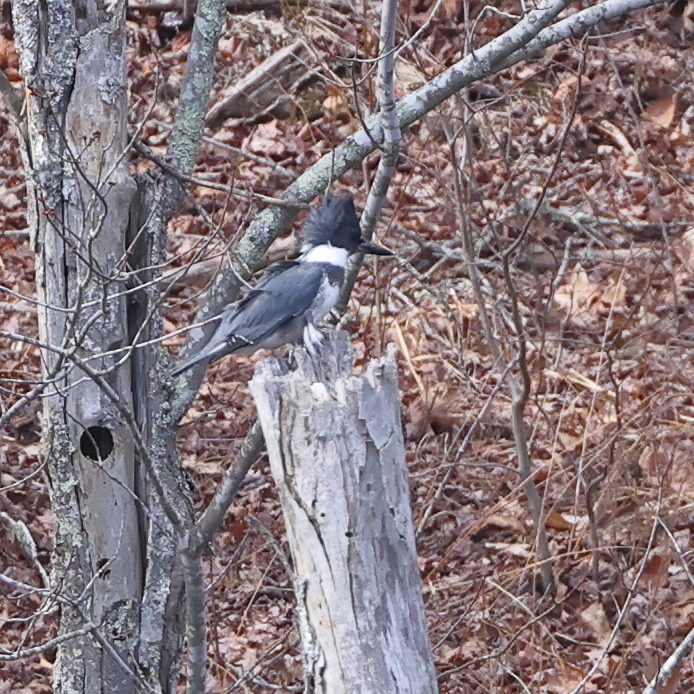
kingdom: Animalia
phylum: Chordata
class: Aves
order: Coraciiformes
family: Alcedinidae
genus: Megaceryle
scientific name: Megaceryle alcyon
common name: Belted kingfisher
